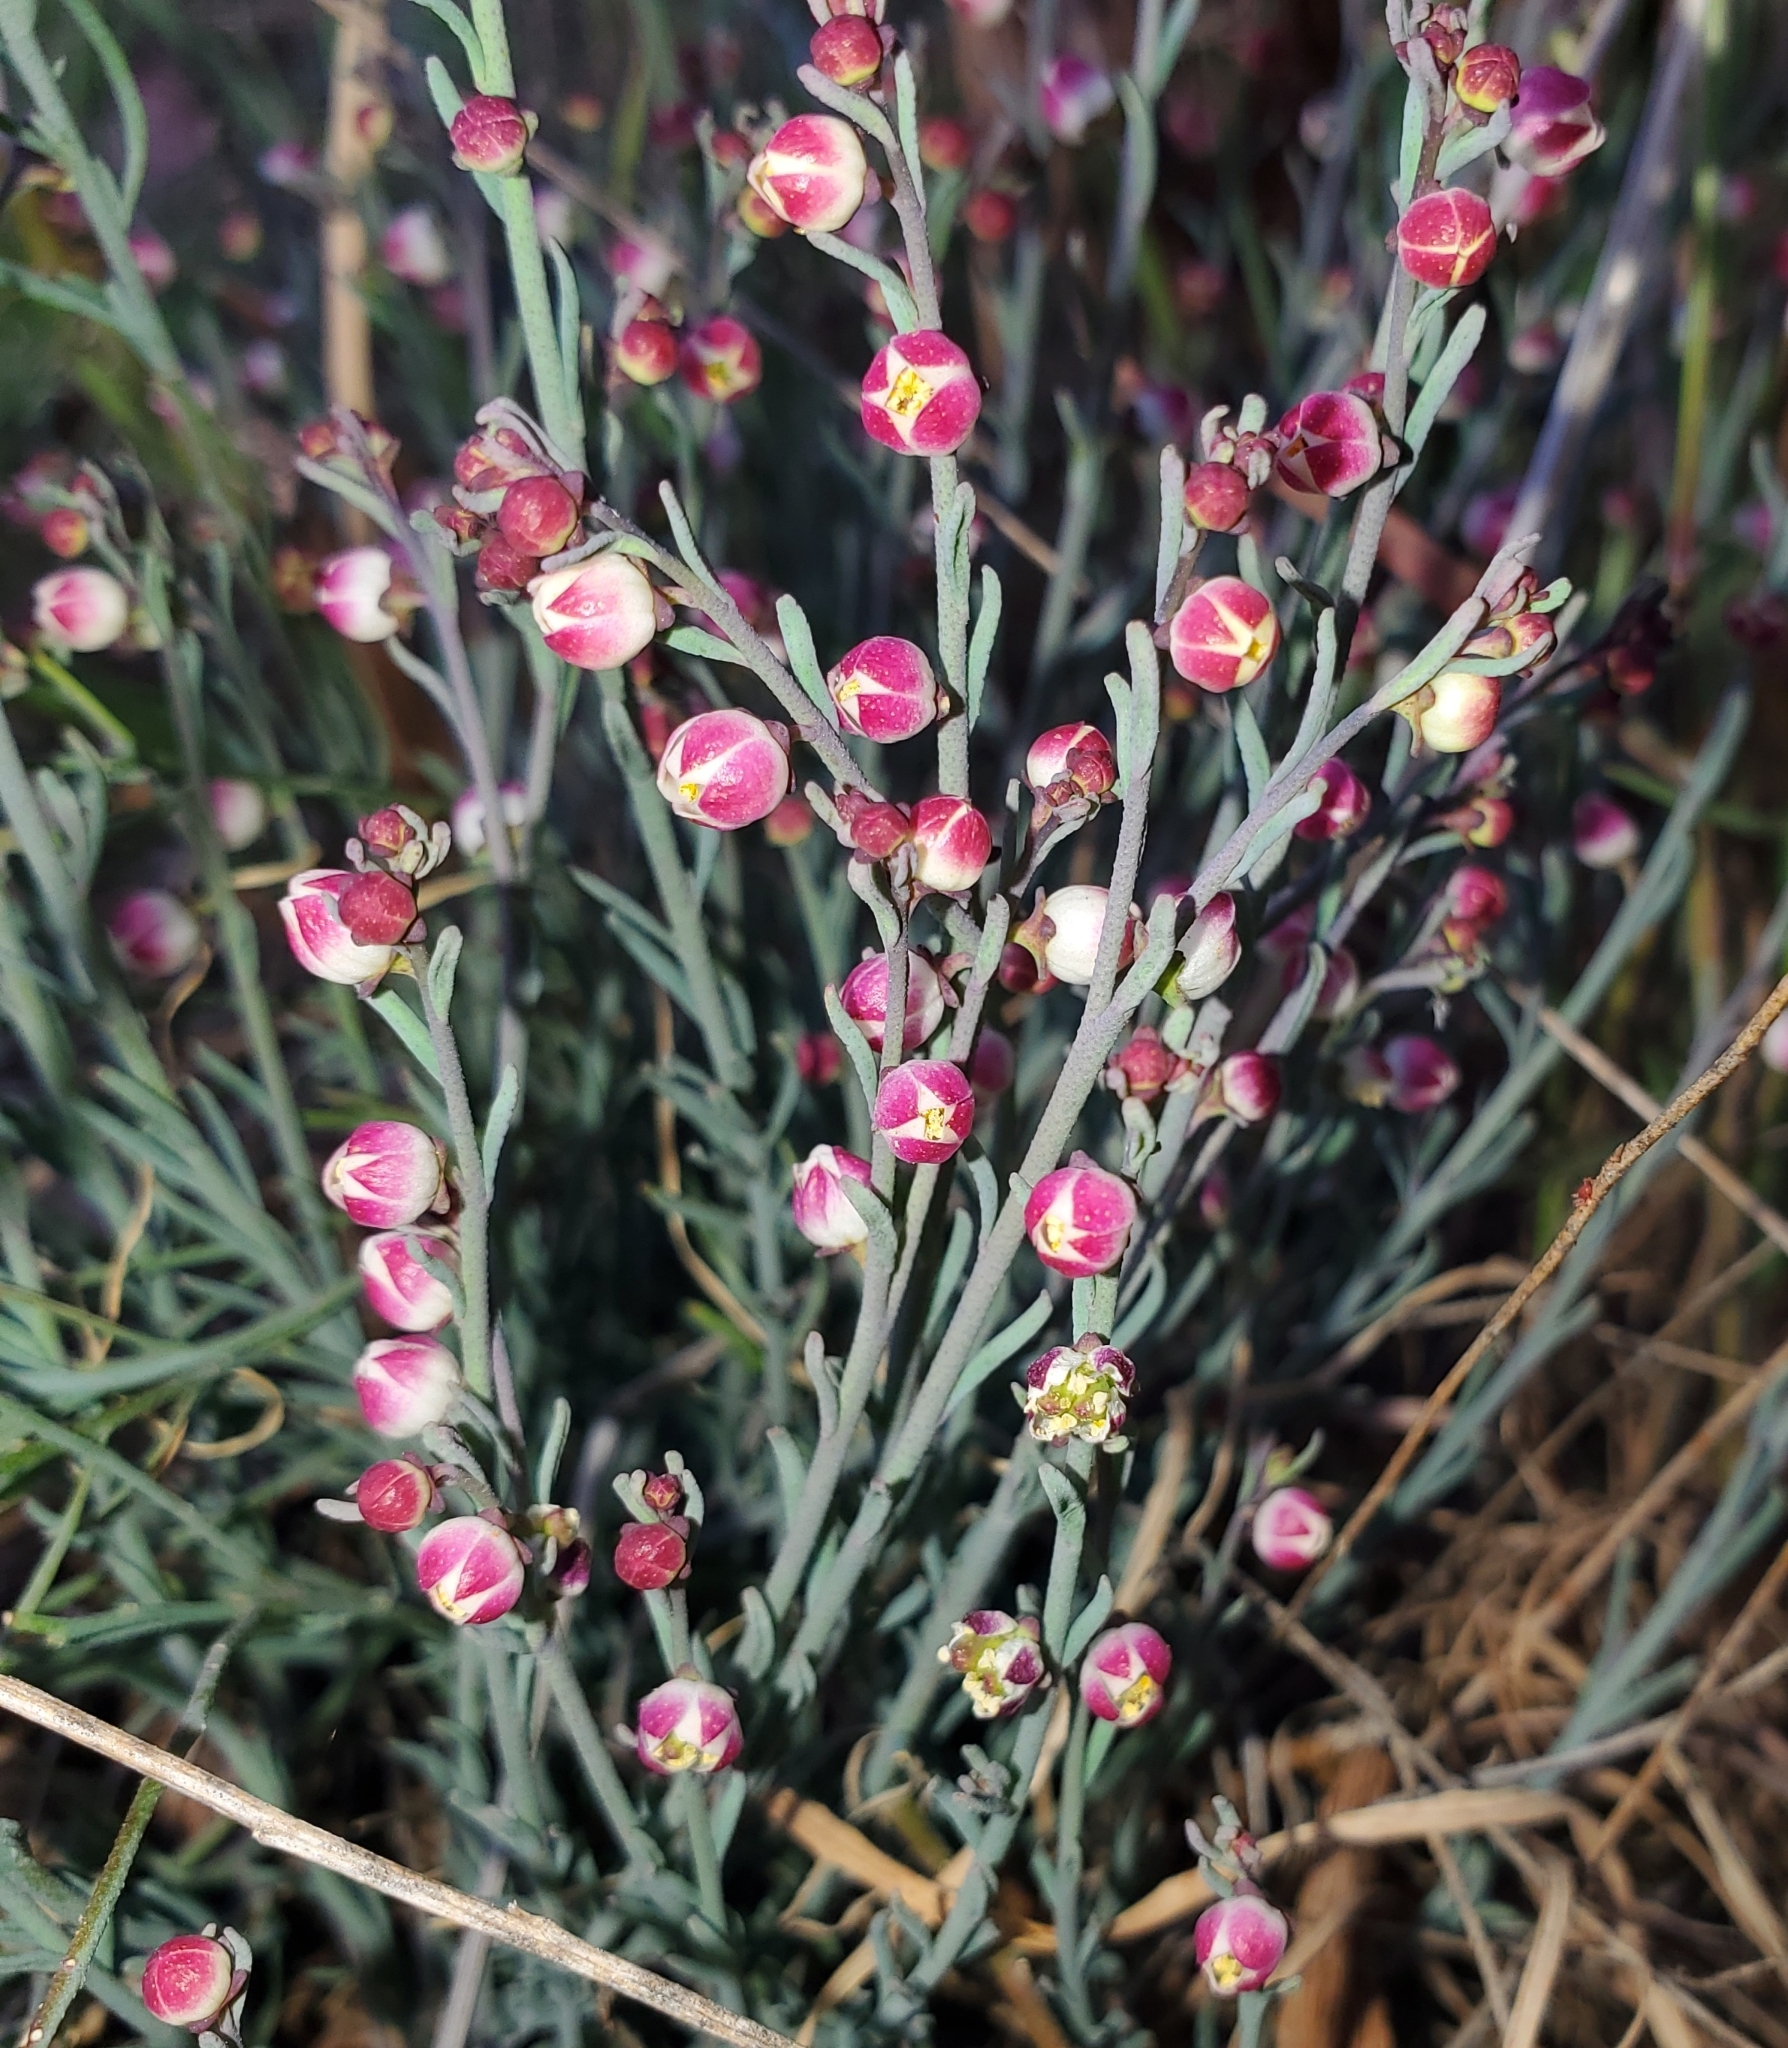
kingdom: Plantae
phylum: Tracheophyta
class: Magnoliopsida
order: Sapindales
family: Rutaceae
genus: Thamnosma
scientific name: Thamnosma texana
